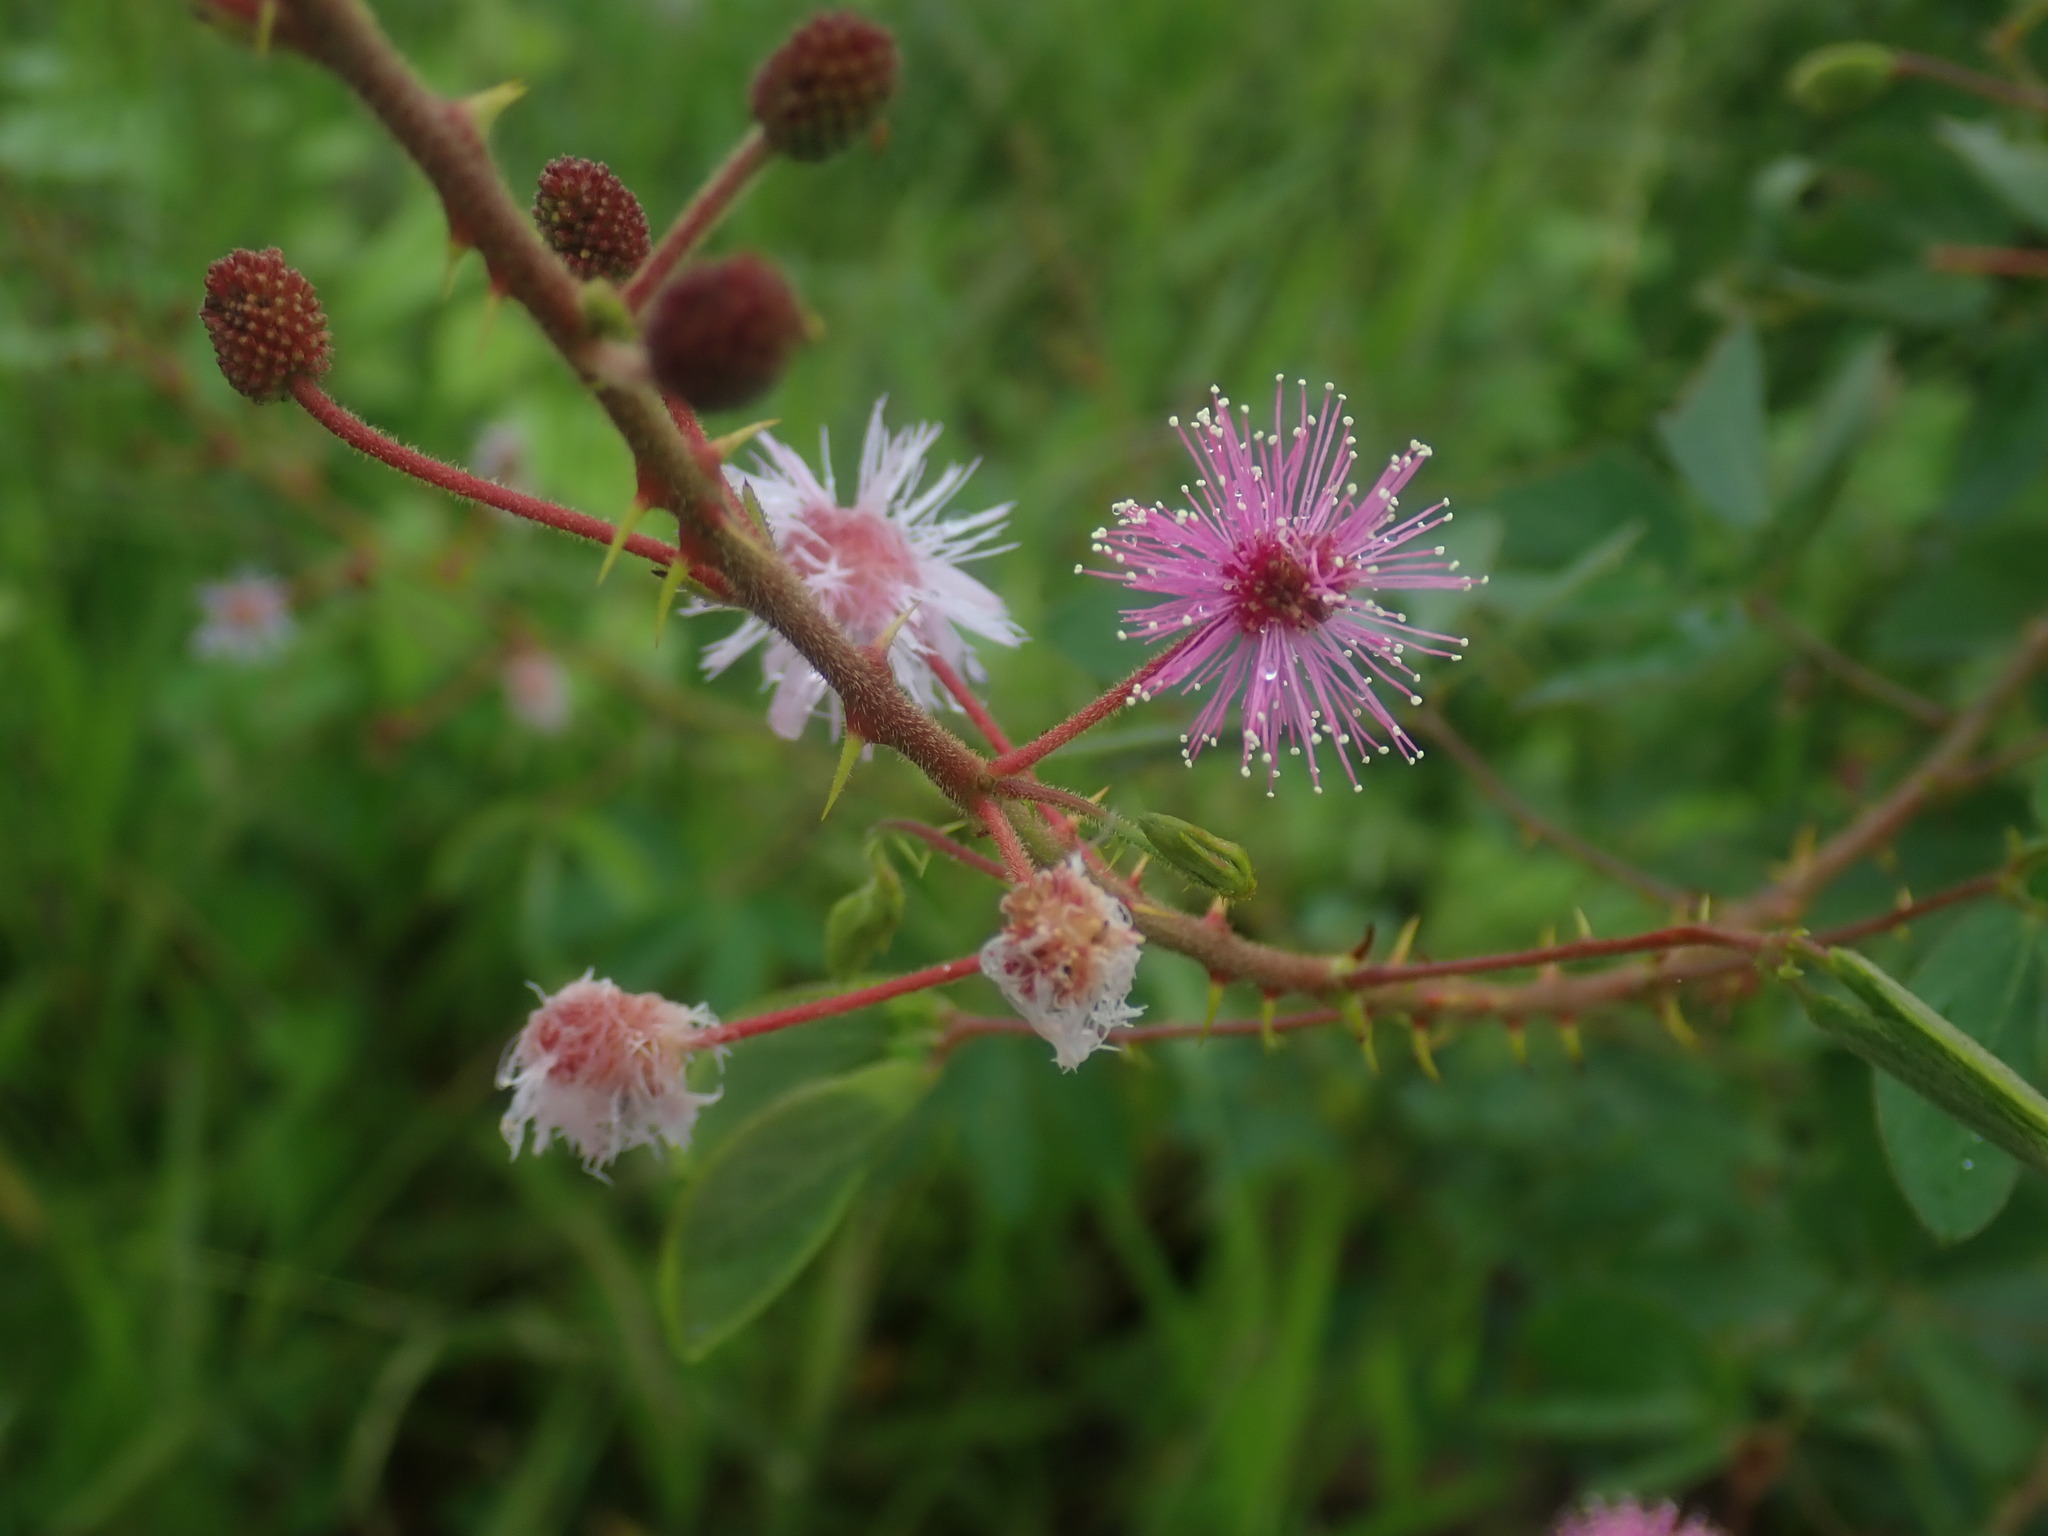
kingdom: Plantae
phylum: Tracheophyta
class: Magnoliopsida
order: Fabales
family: Fabaceae
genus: Mimosa
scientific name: Mimosa albida
